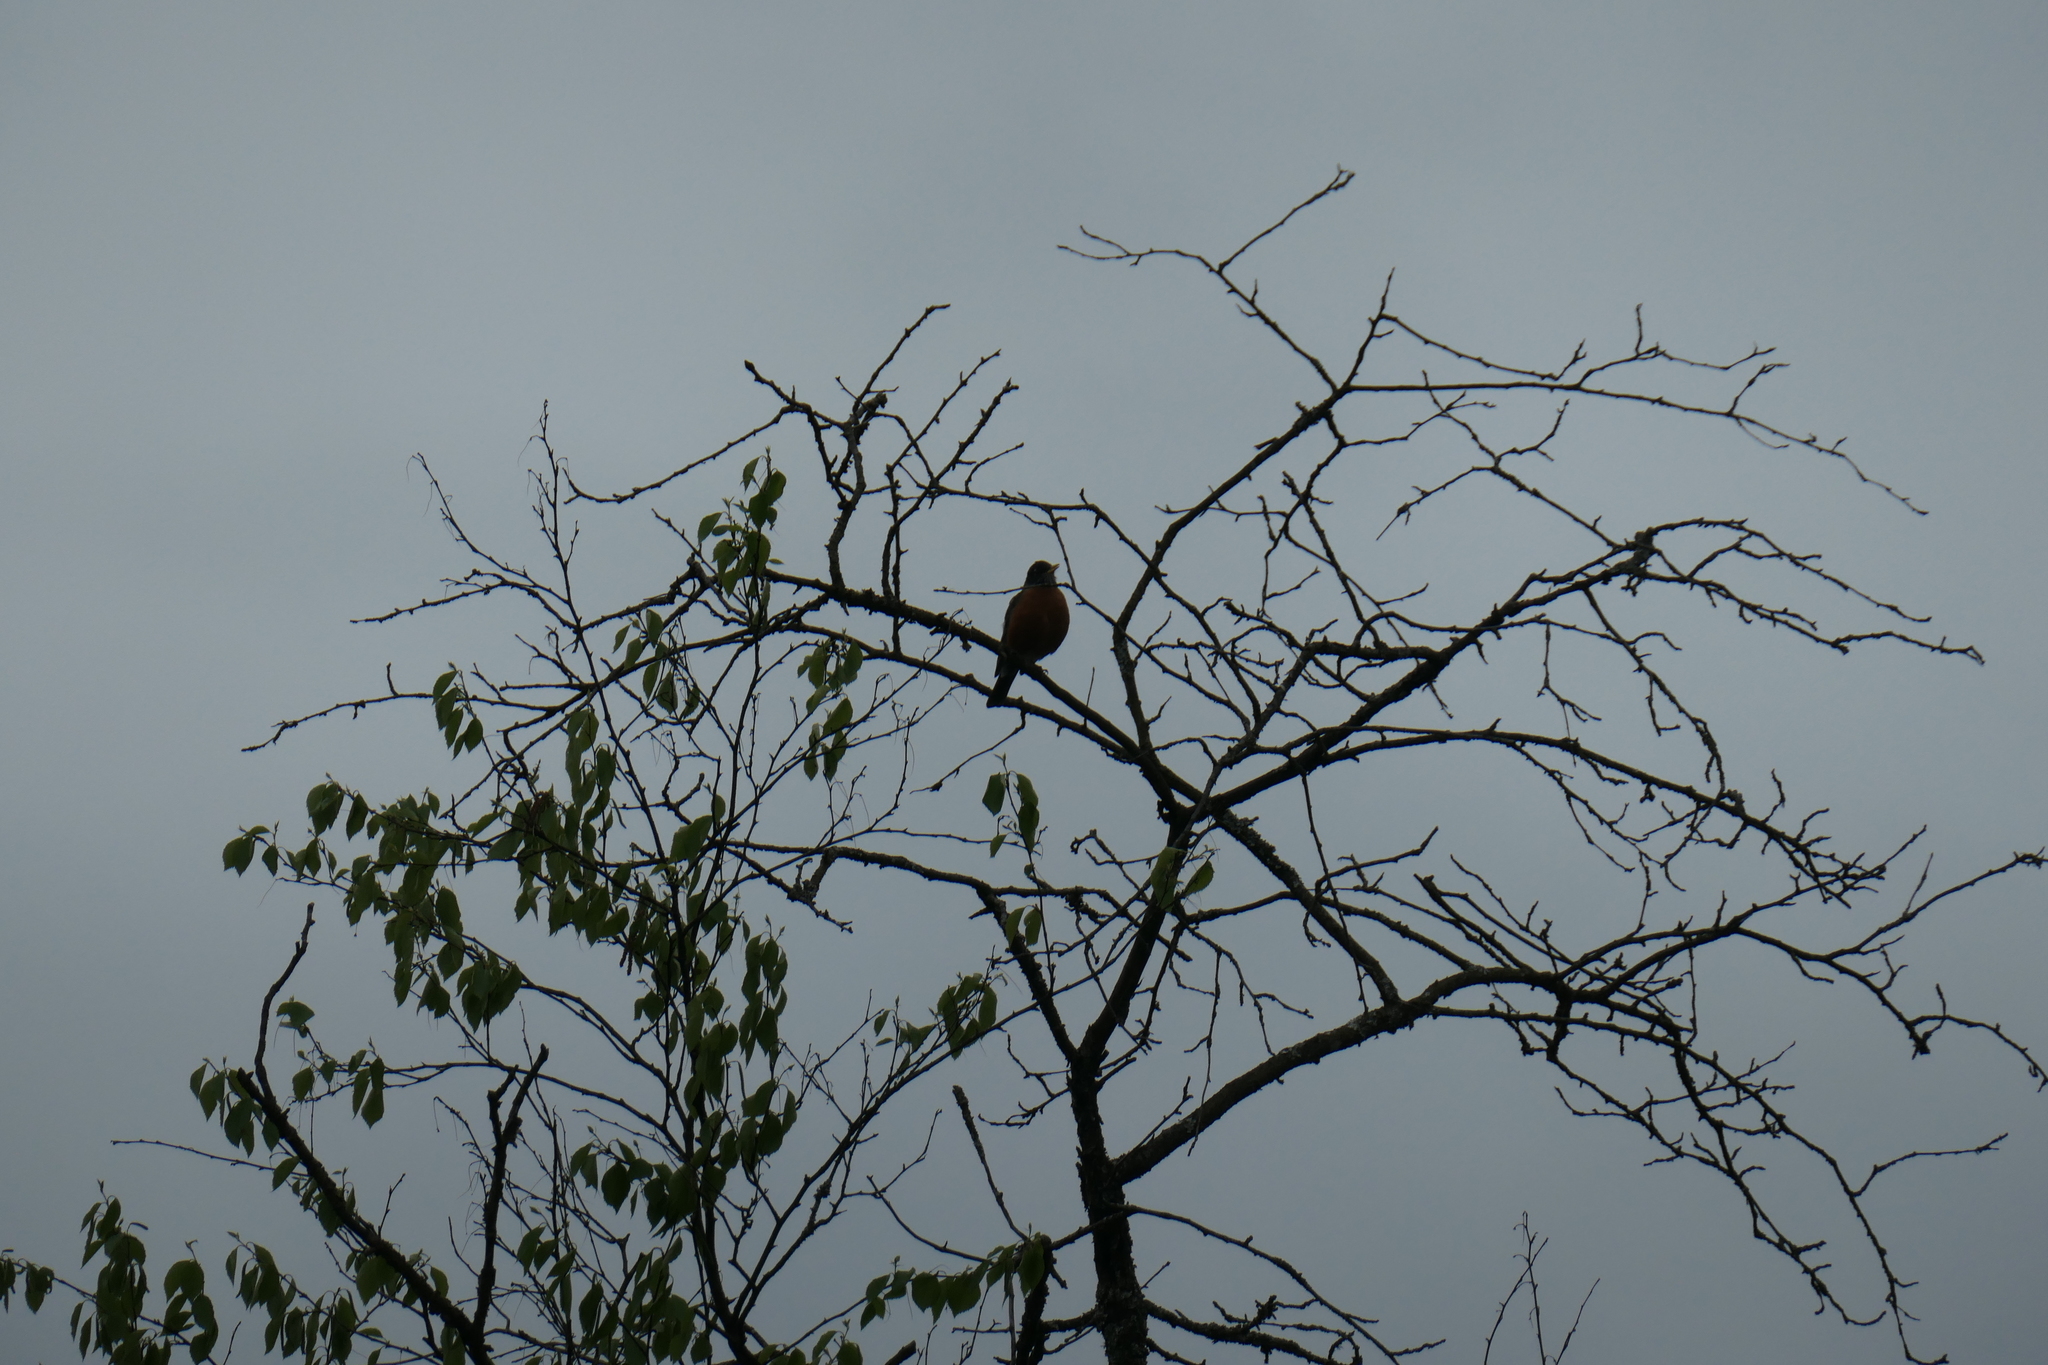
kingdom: Animalia
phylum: Chordata
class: Aves
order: Passeriformes
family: Turdidae
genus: Turdus
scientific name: Turdus migratorius
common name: American robin
